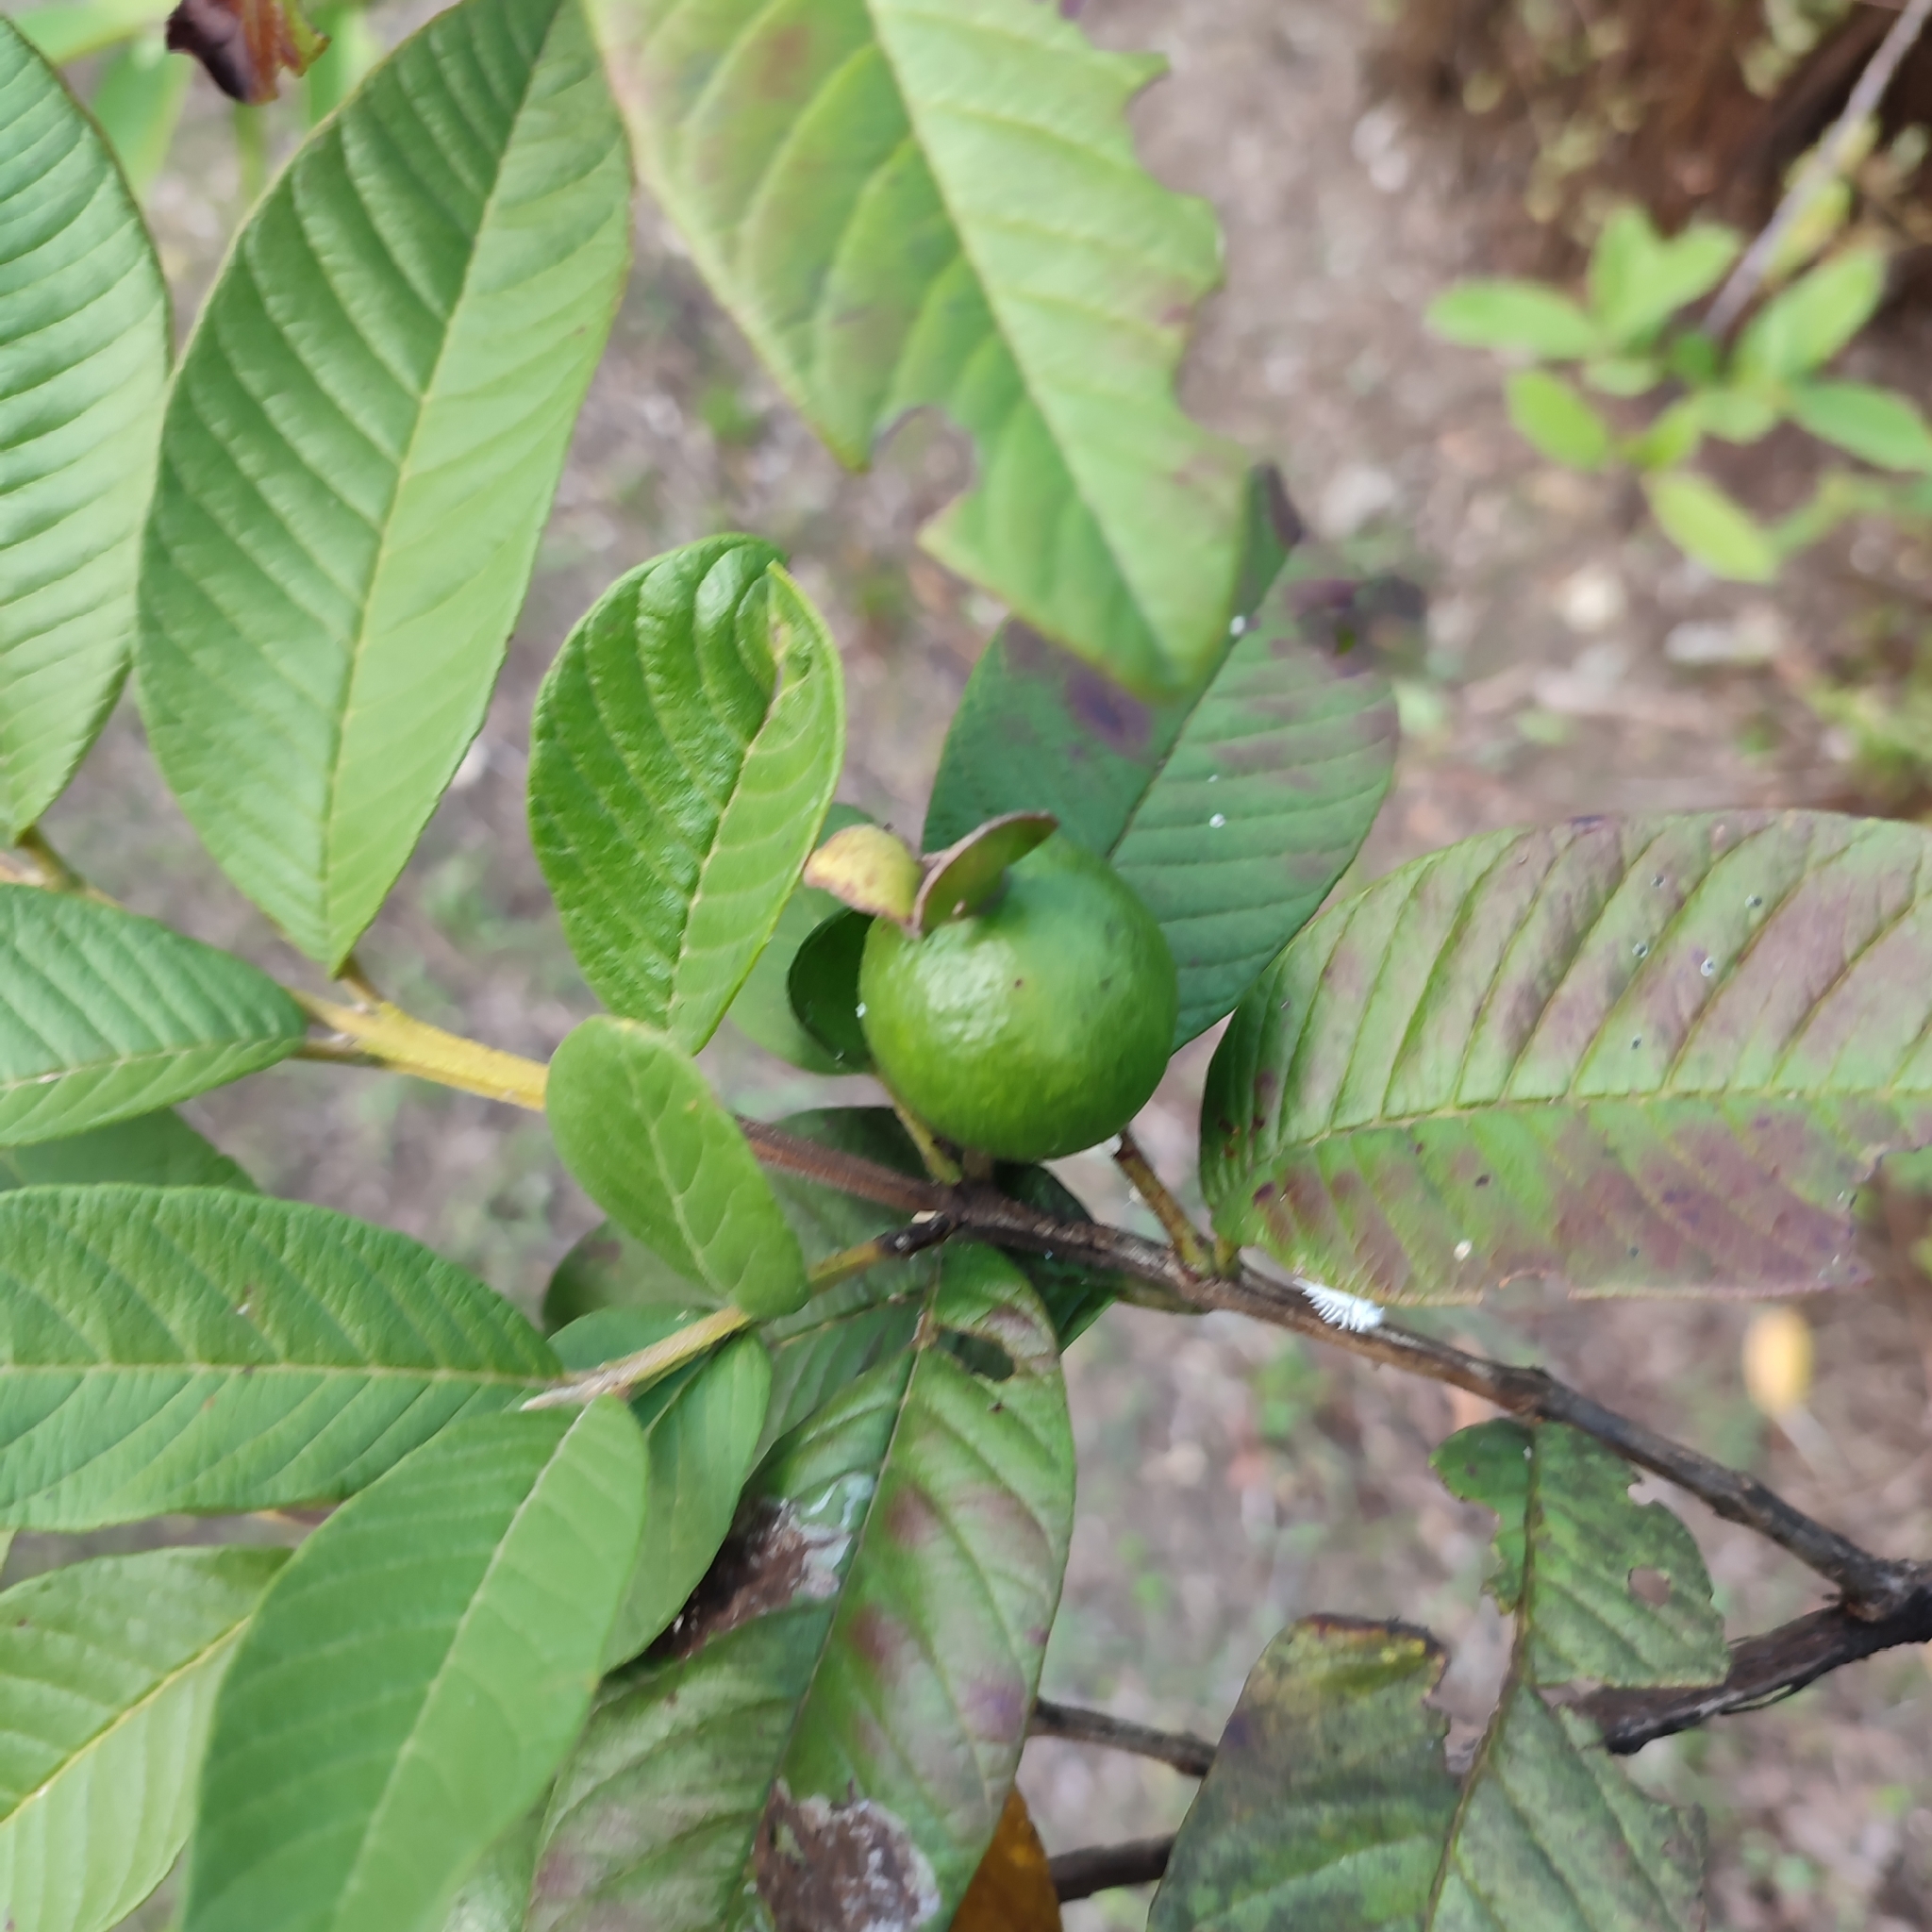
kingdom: Plantae
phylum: Tracheophyta
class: Magnoliopsida
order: Myrtales
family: Myrtaceae
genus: Psidium
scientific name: Psidium guajava
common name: Guava
